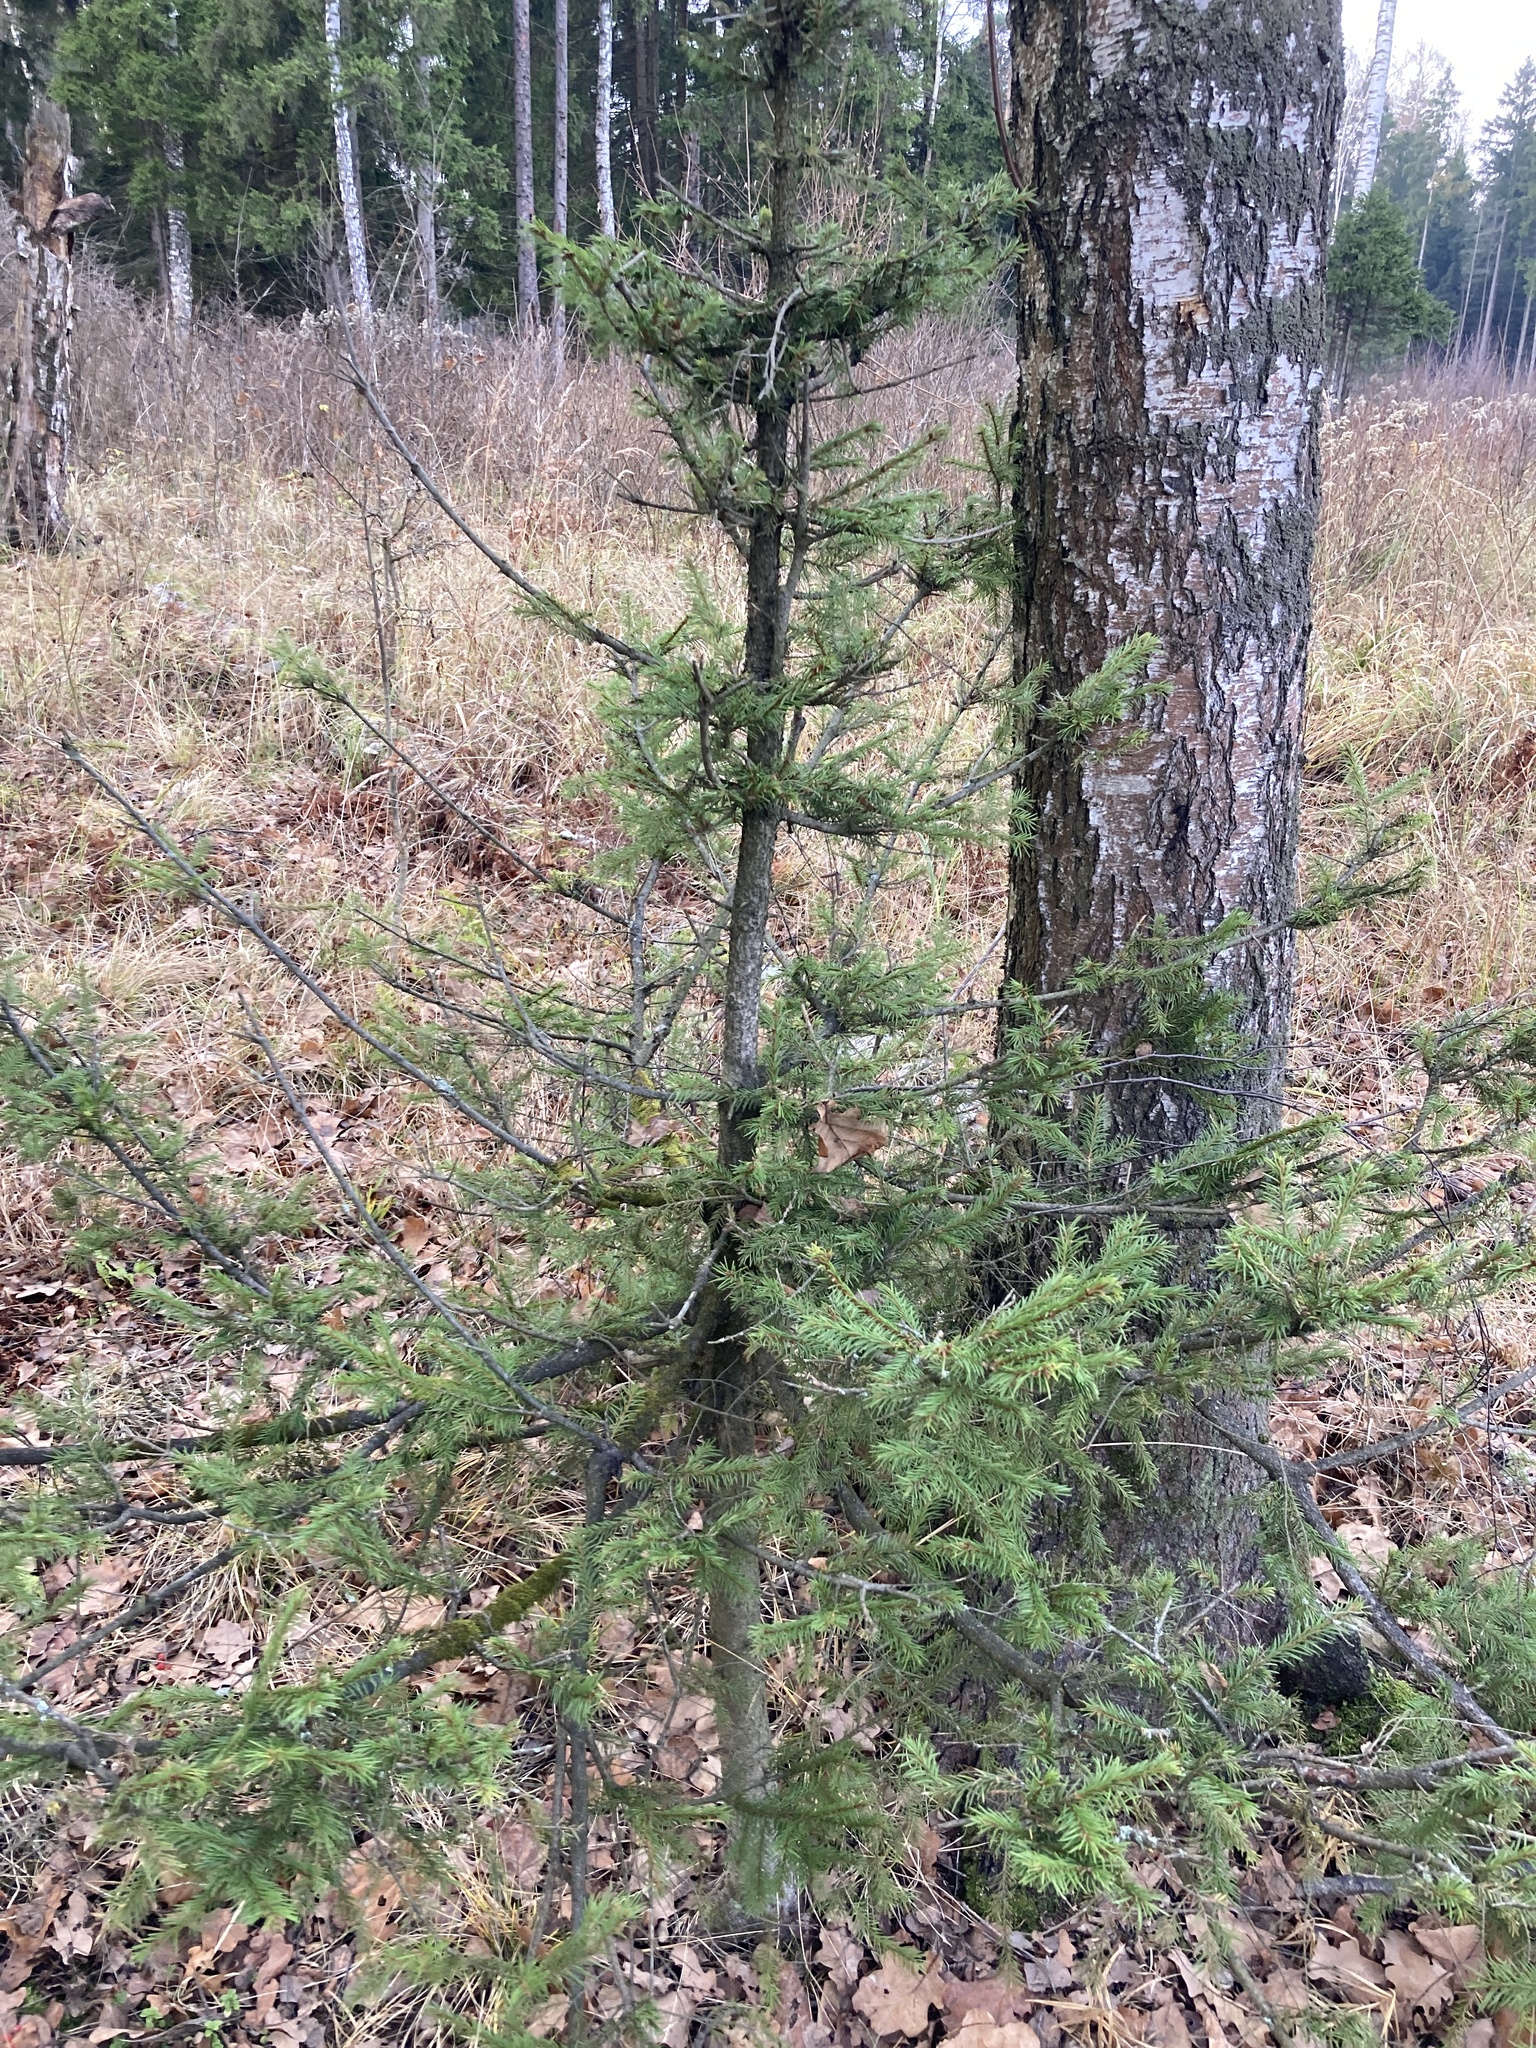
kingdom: Plantae
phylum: Tracheophyta
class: Pinopsida
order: Pinales
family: Pinaceae
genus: Picea
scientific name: Picea abies
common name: Norway spruce
